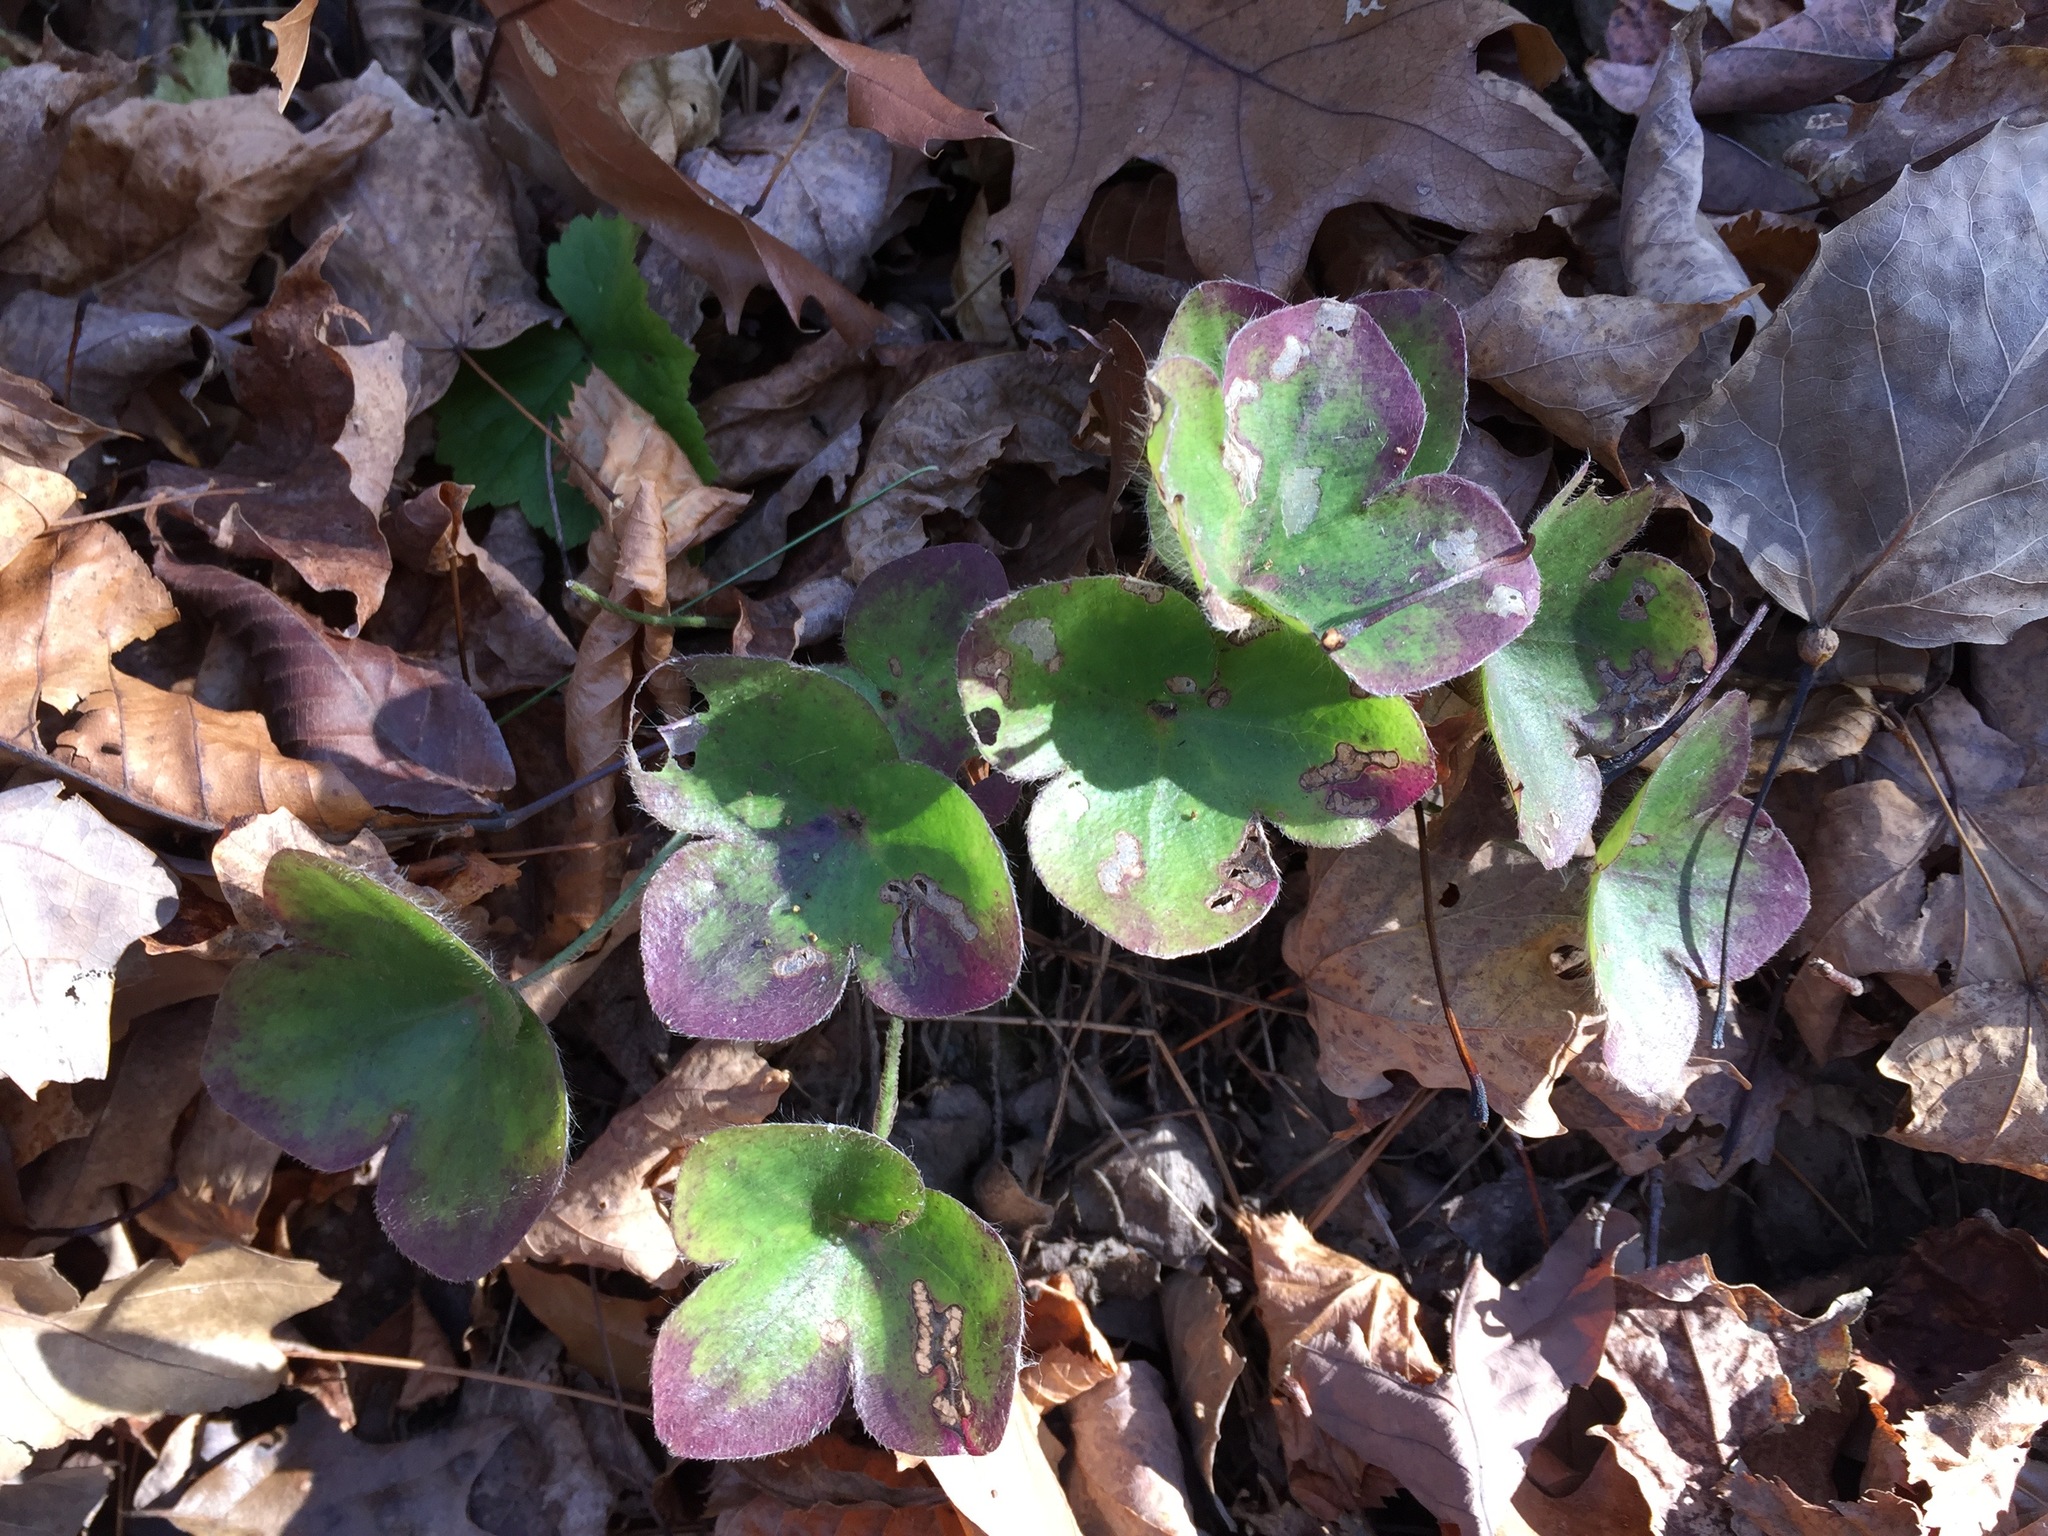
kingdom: Plantae
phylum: Tracheophyta
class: Magnoliopsida
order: Ranunculales
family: Ranunculaceae
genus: Hepatica
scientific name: Hepatica americana
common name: American hepatica
